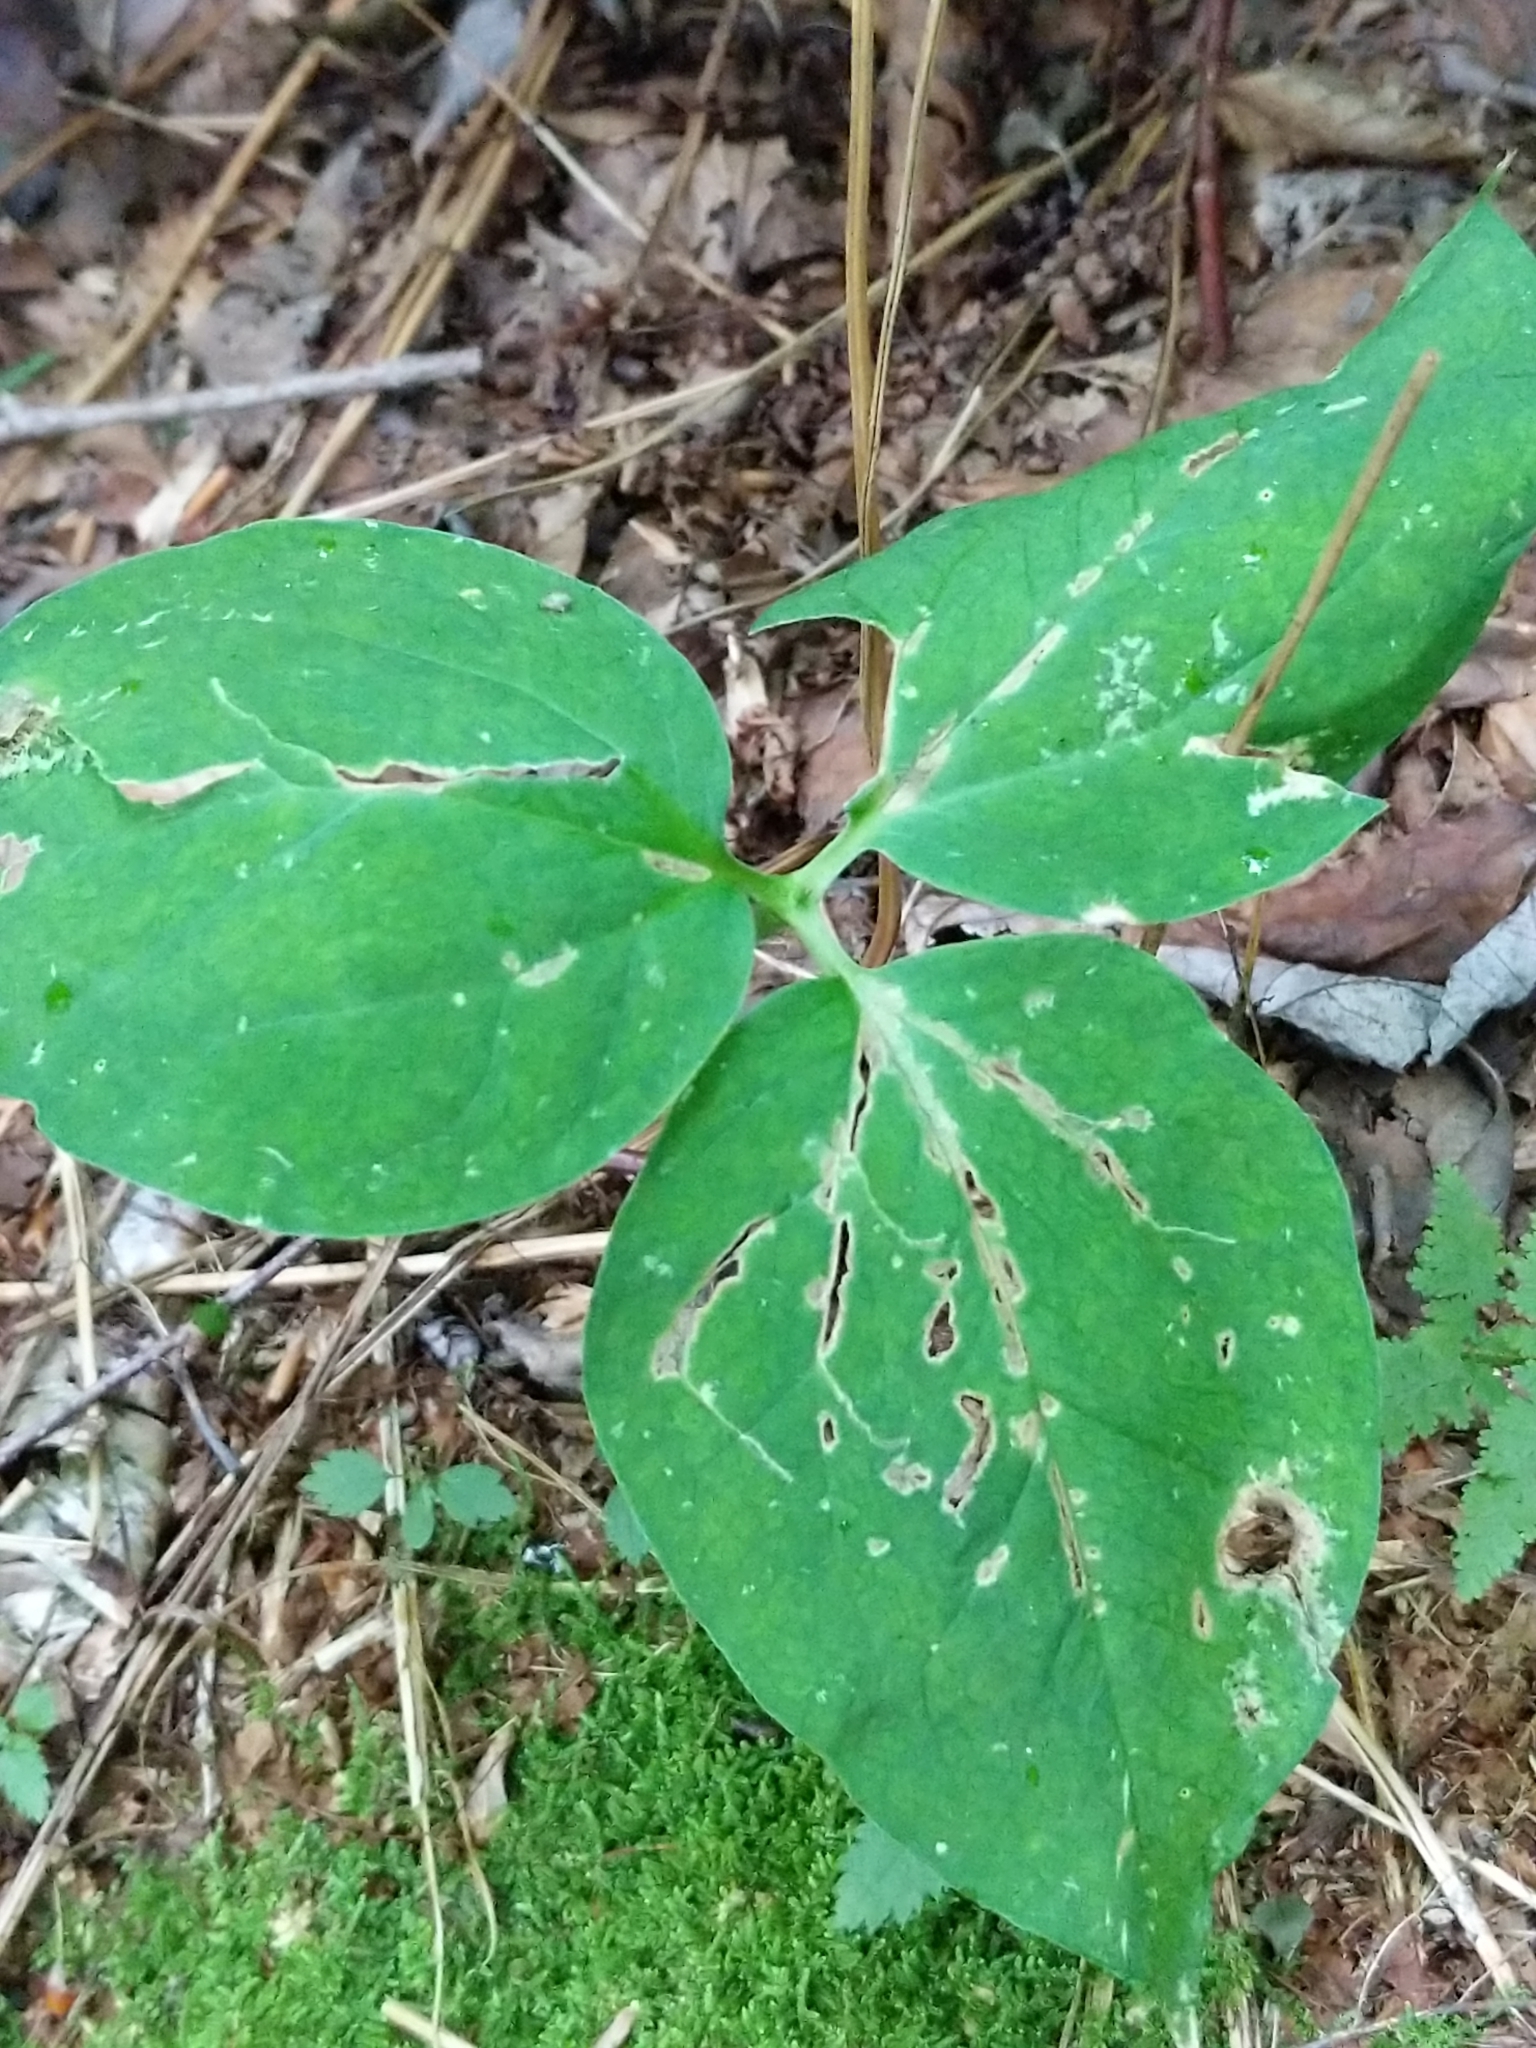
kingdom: Plantae
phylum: Tracheophyta
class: Liliopsida
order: Liliales
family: Melanthiaceae
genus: Trillium
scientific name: Trillium undulatum
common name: Paint trillium
